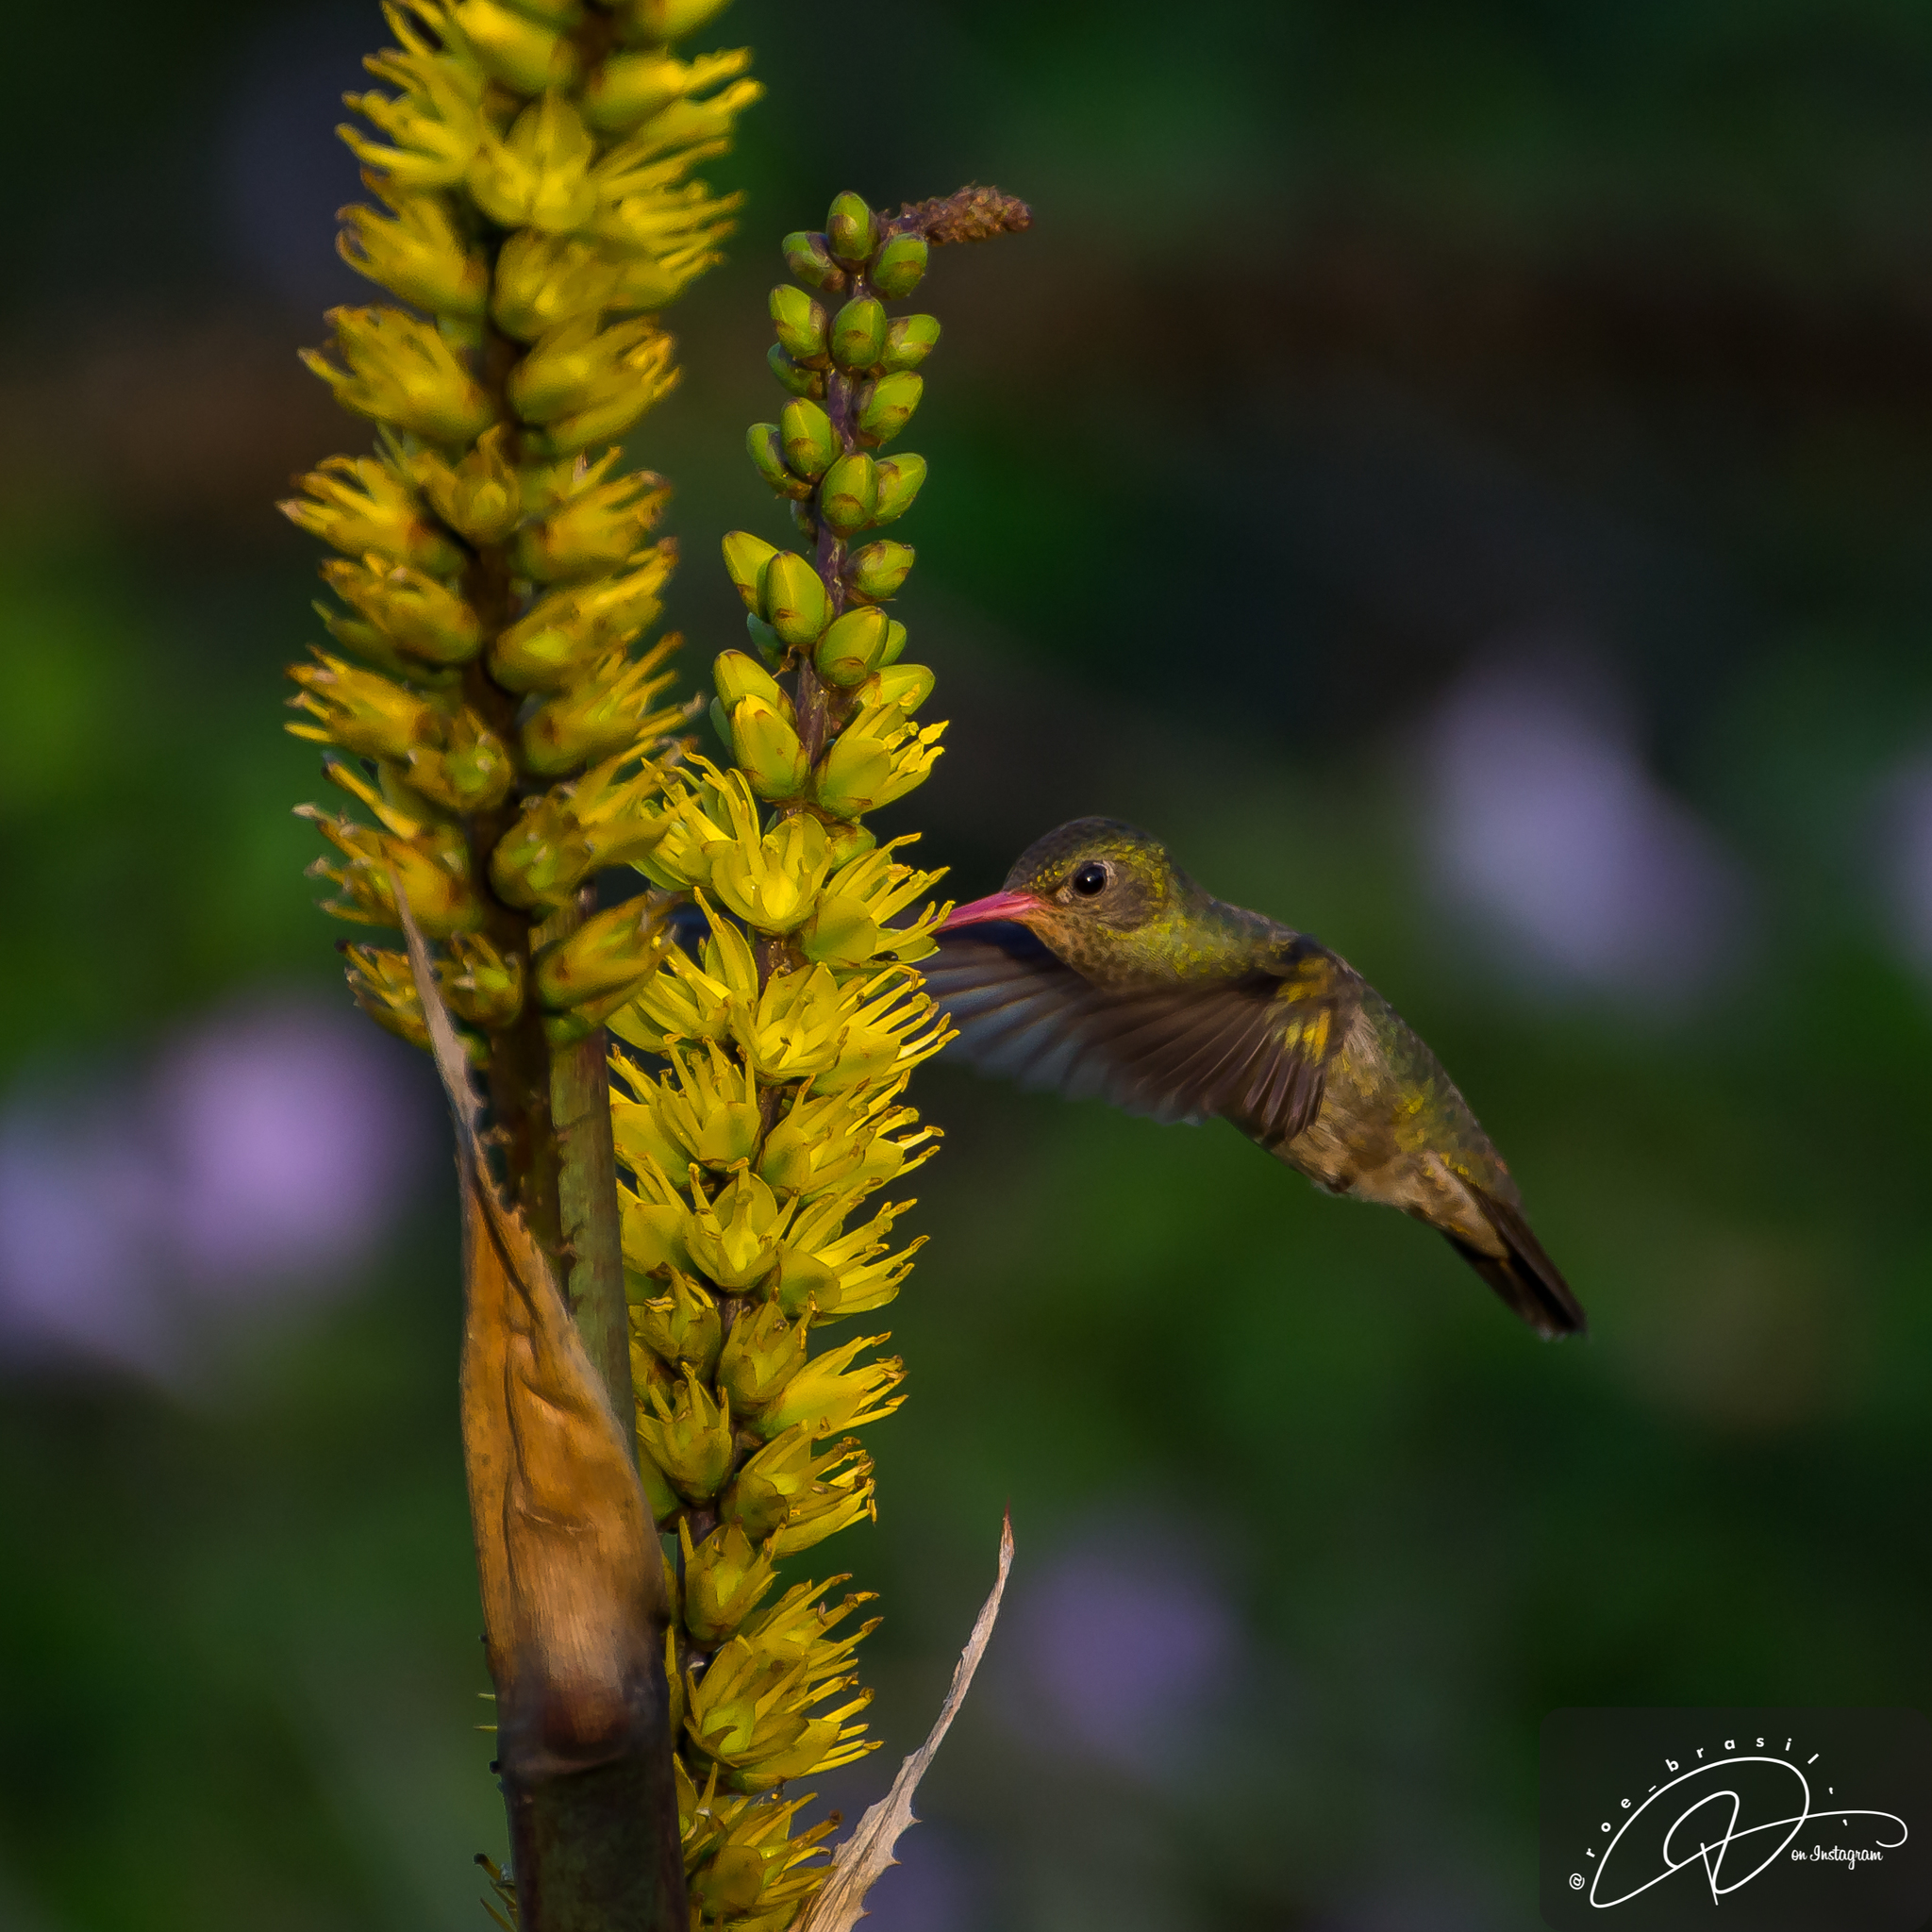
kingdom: Animalia
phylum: Chordata
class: Aves
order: Apodiformes
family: Trochilidae
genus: Hylocharis
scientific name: Hylocharis chrysura
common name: Gilded sapphire
